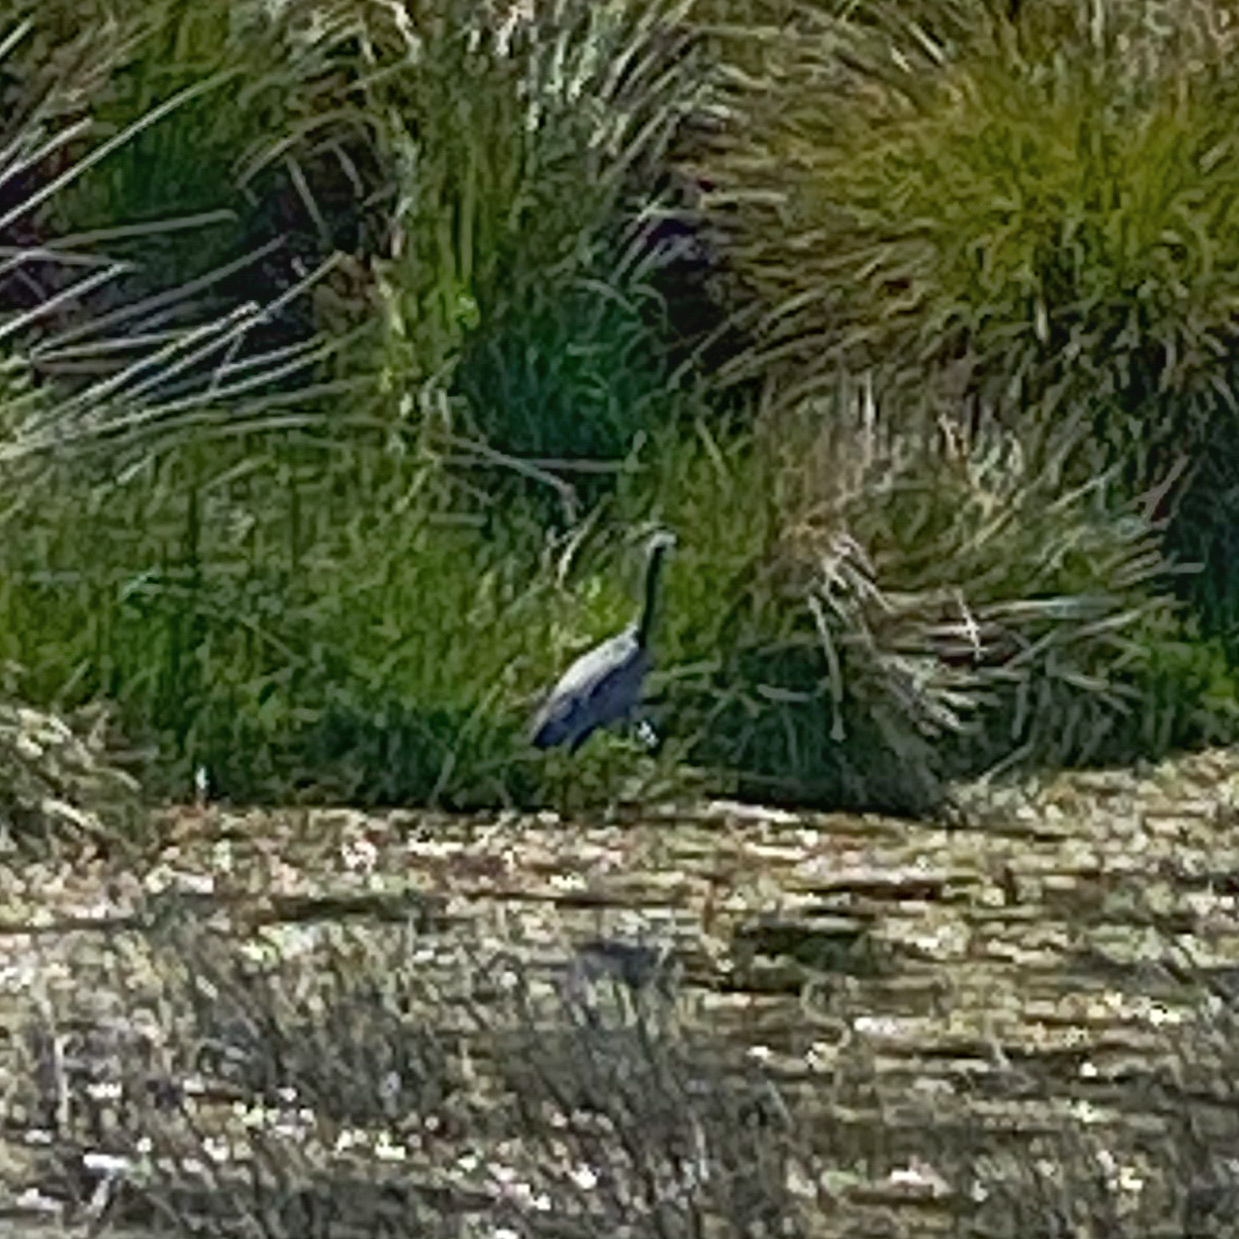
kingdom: Animalia
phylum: Chordata
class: Aves
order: Pelecaniformes
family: Ardeidae
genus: Egretta
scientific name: Egretta novaehollandiae
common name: White-faced heron
